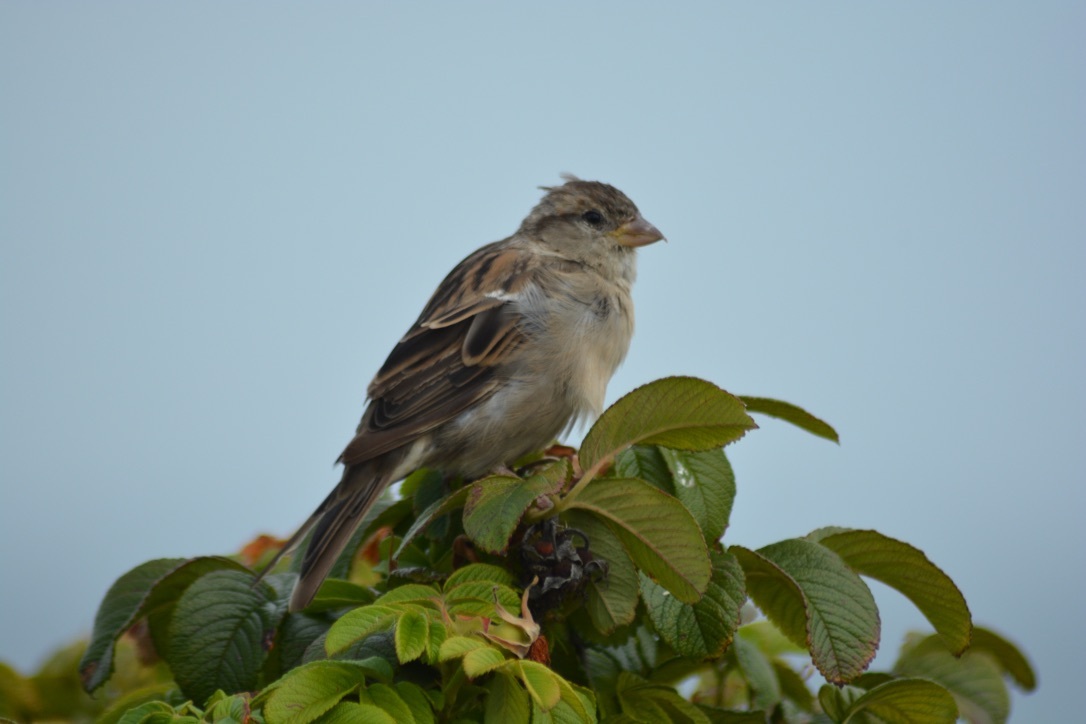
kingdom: Animalia
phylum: Chordata
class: Aves
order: Passeriformes
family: Passeridae
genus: Passer
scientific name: Passer domesticus
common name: House sparrow
